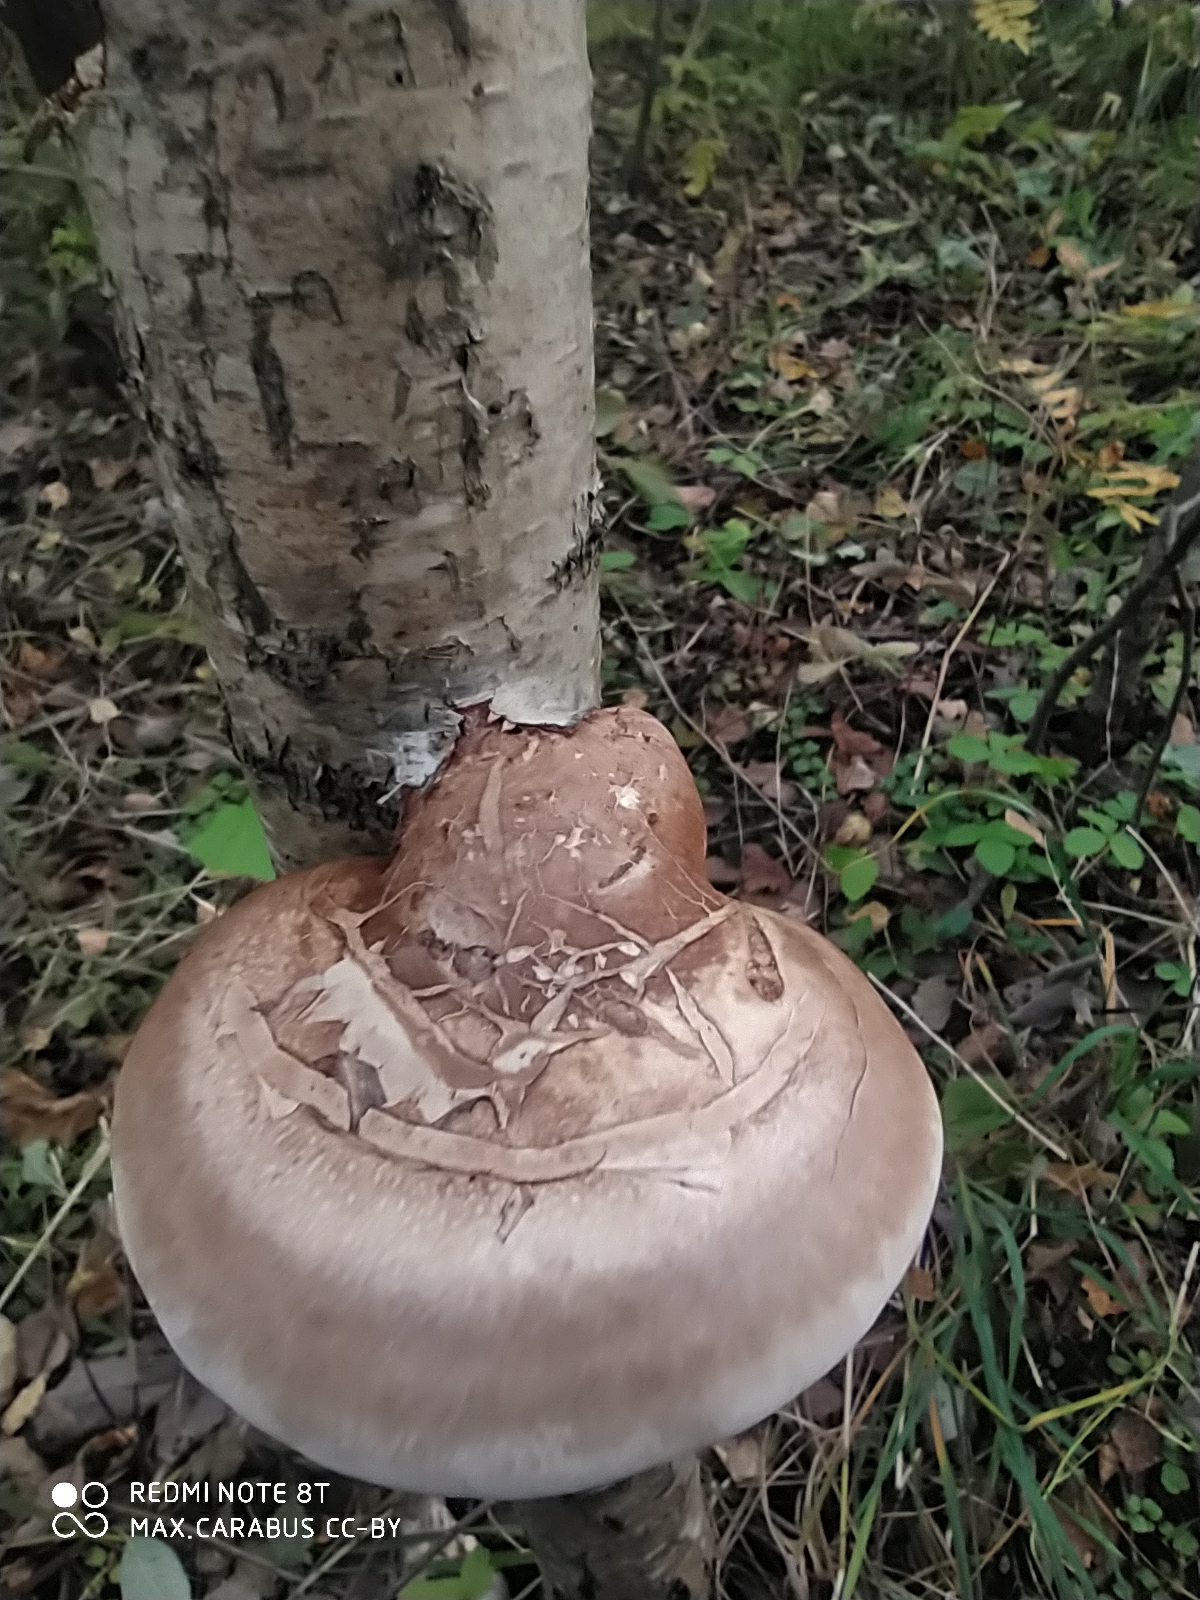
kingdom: Fungi
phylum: Basidiomycota
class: Agaricomycetes
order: Polyporales
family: Fomitopsidaceae
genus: Fomitopsis
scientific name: Fomitopsis betulina
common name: Birch polypore
